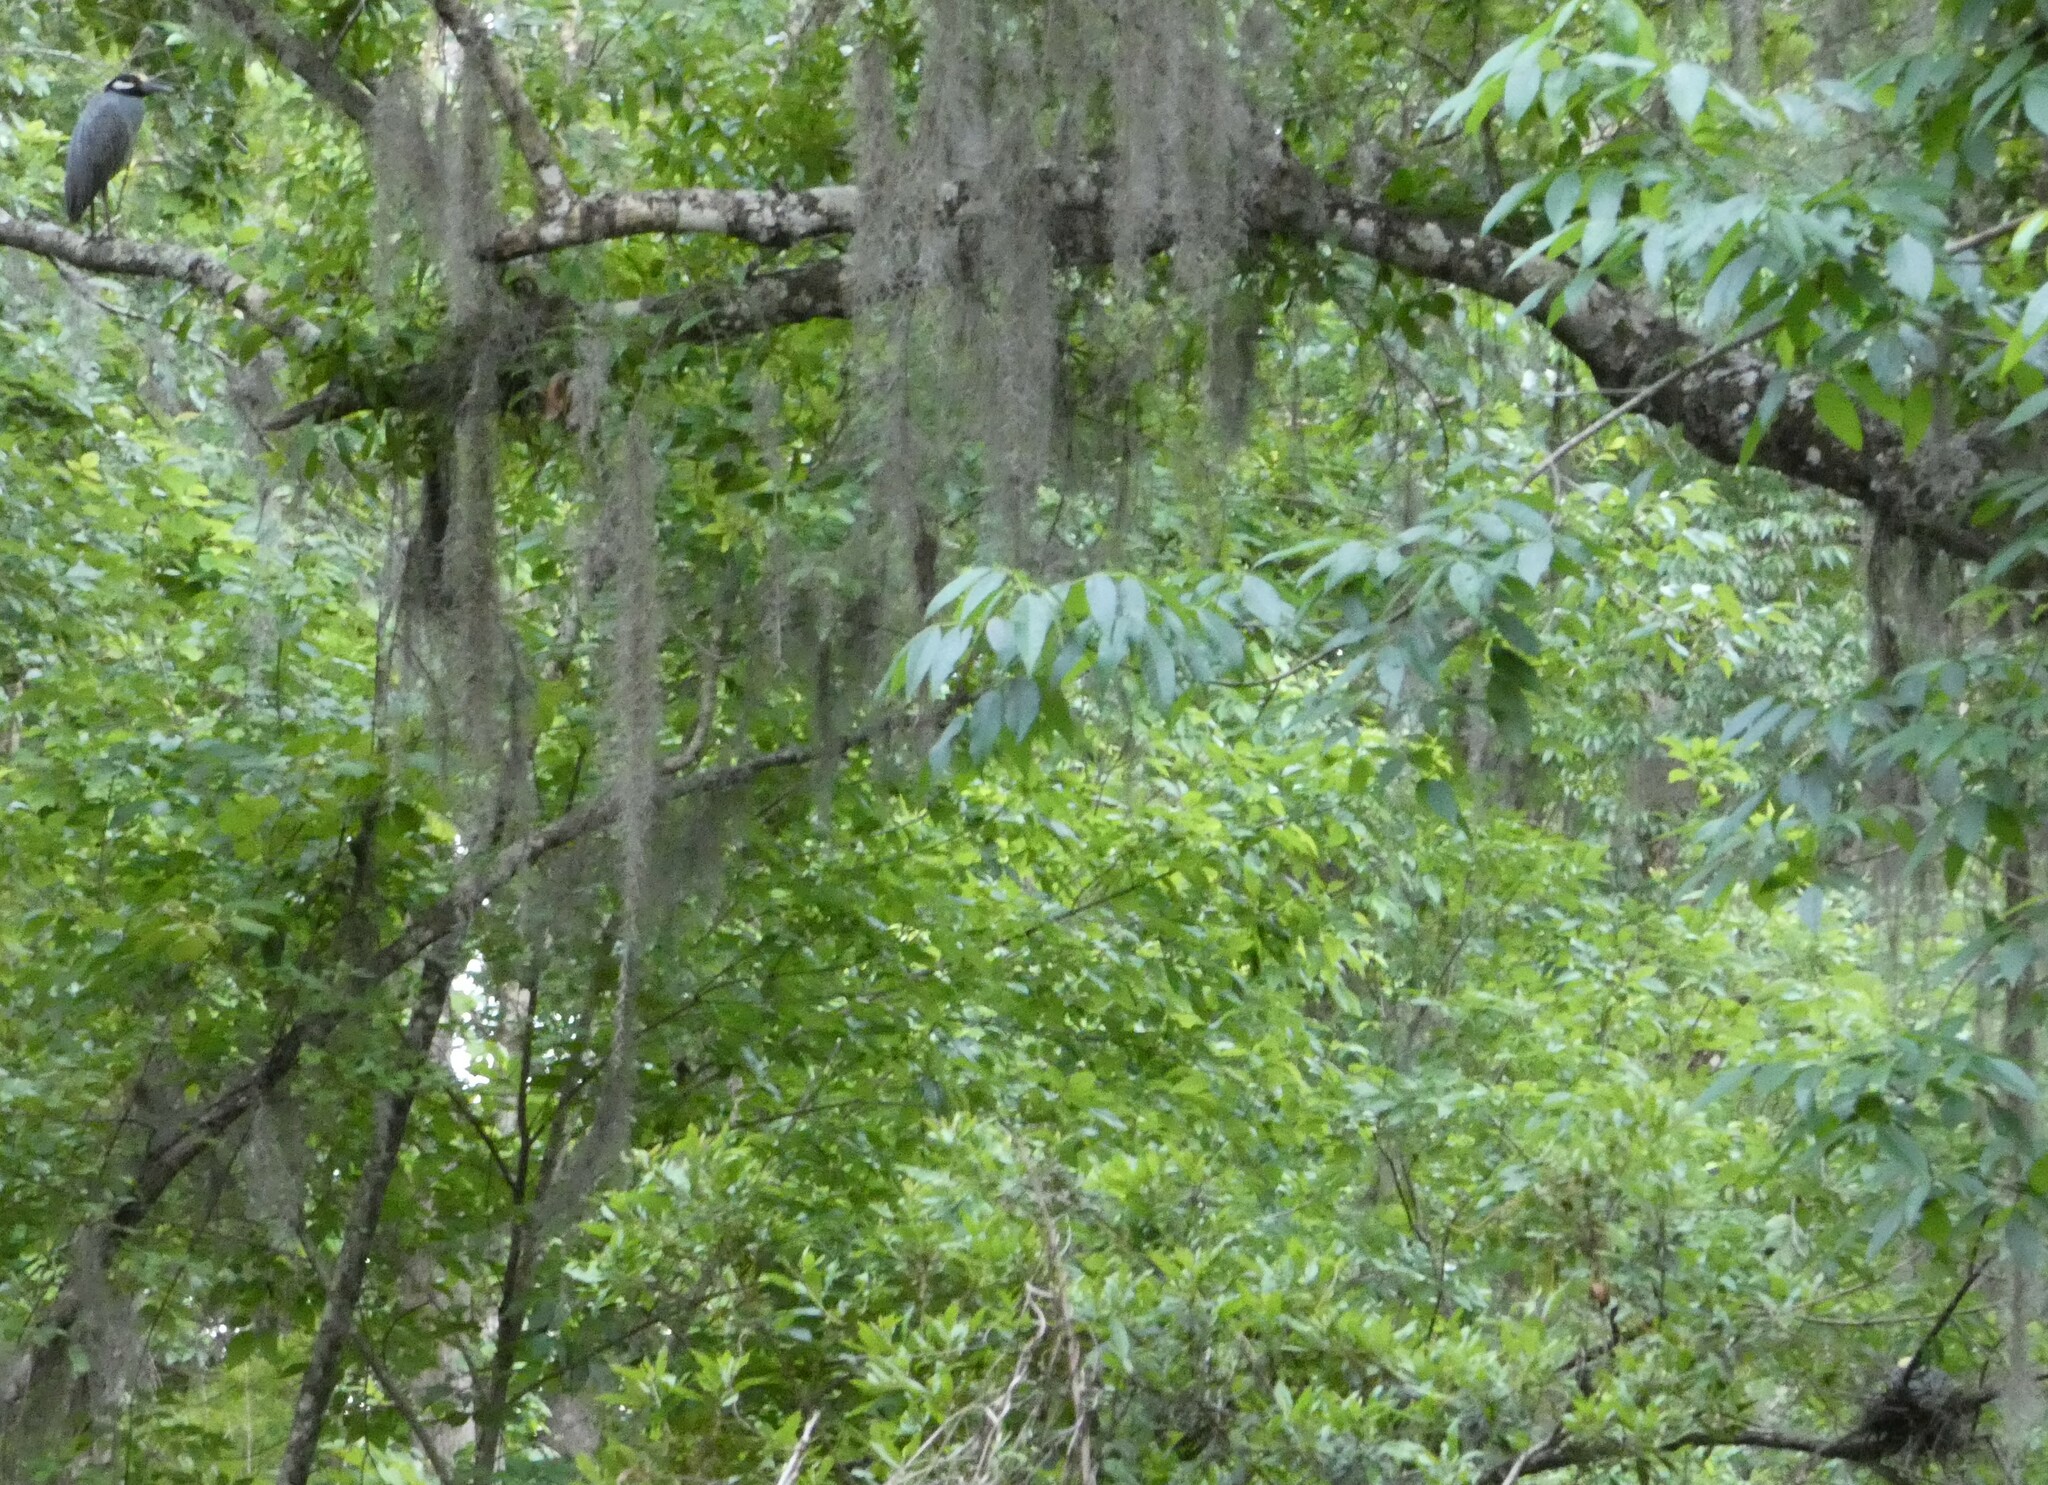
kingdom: Animalia
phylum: Chordata
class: Aves
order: Pelecaniformes
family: Ardeidae
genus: Nyctanassa
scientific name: Nyctanassa violacea
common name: Yellow-crowned night heron
